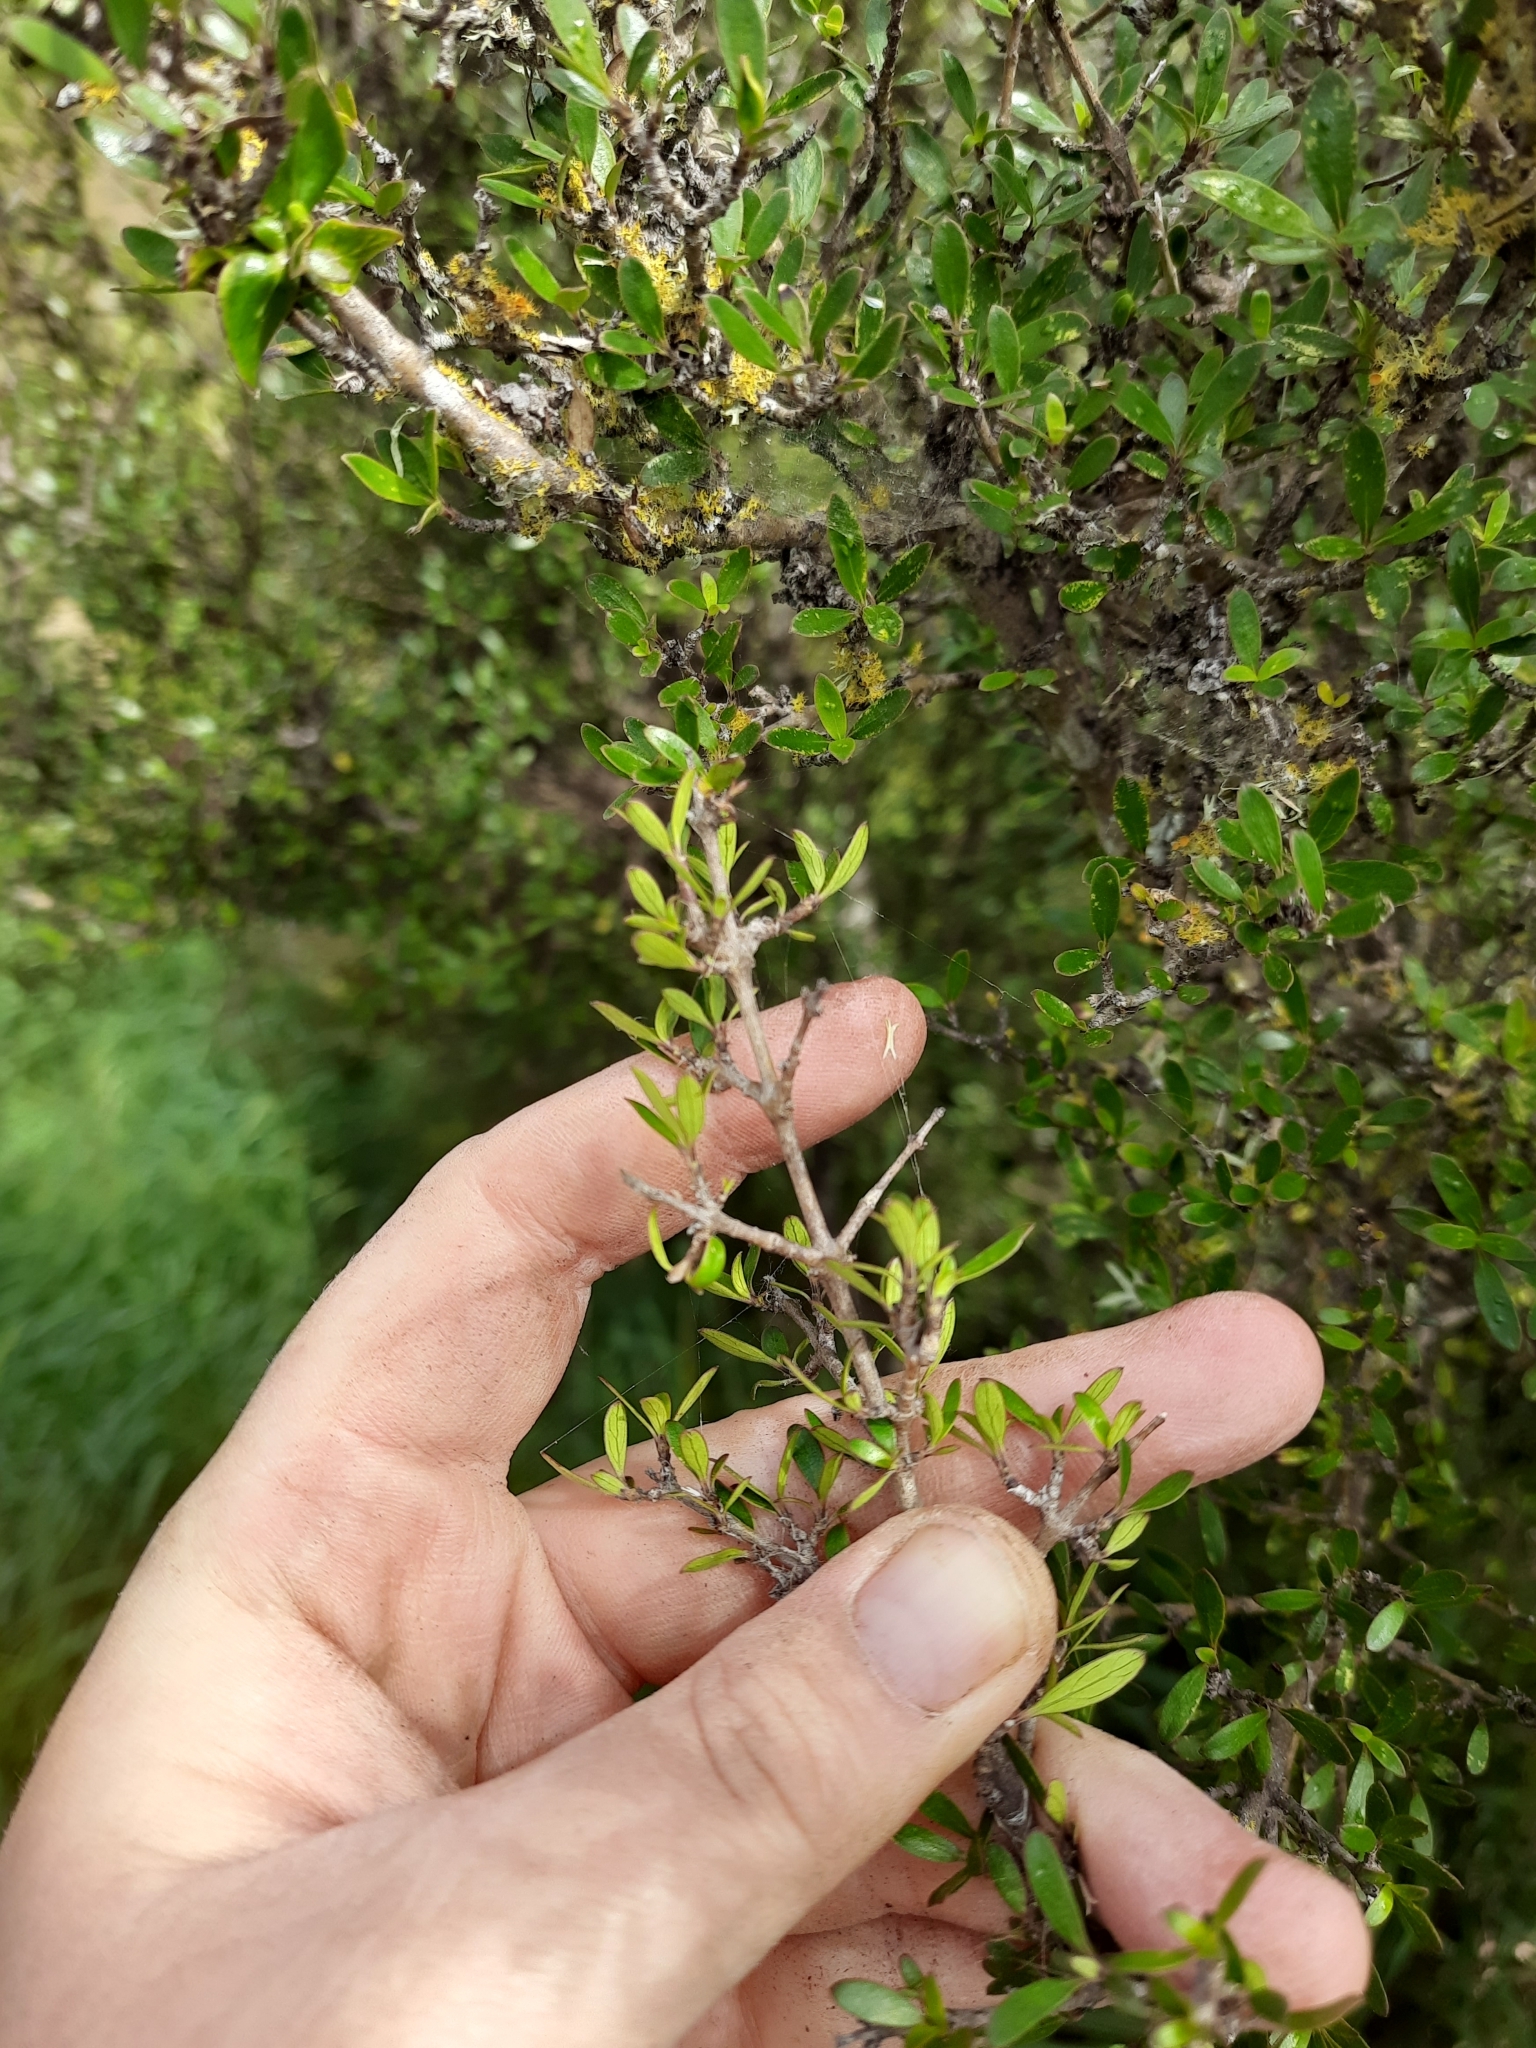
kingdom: Plantae
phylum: Tracheophyta
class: Magnoliopsida
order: Gentianales
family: Rubiaceae
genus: Coprosma
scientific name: Coprosma propinqua
